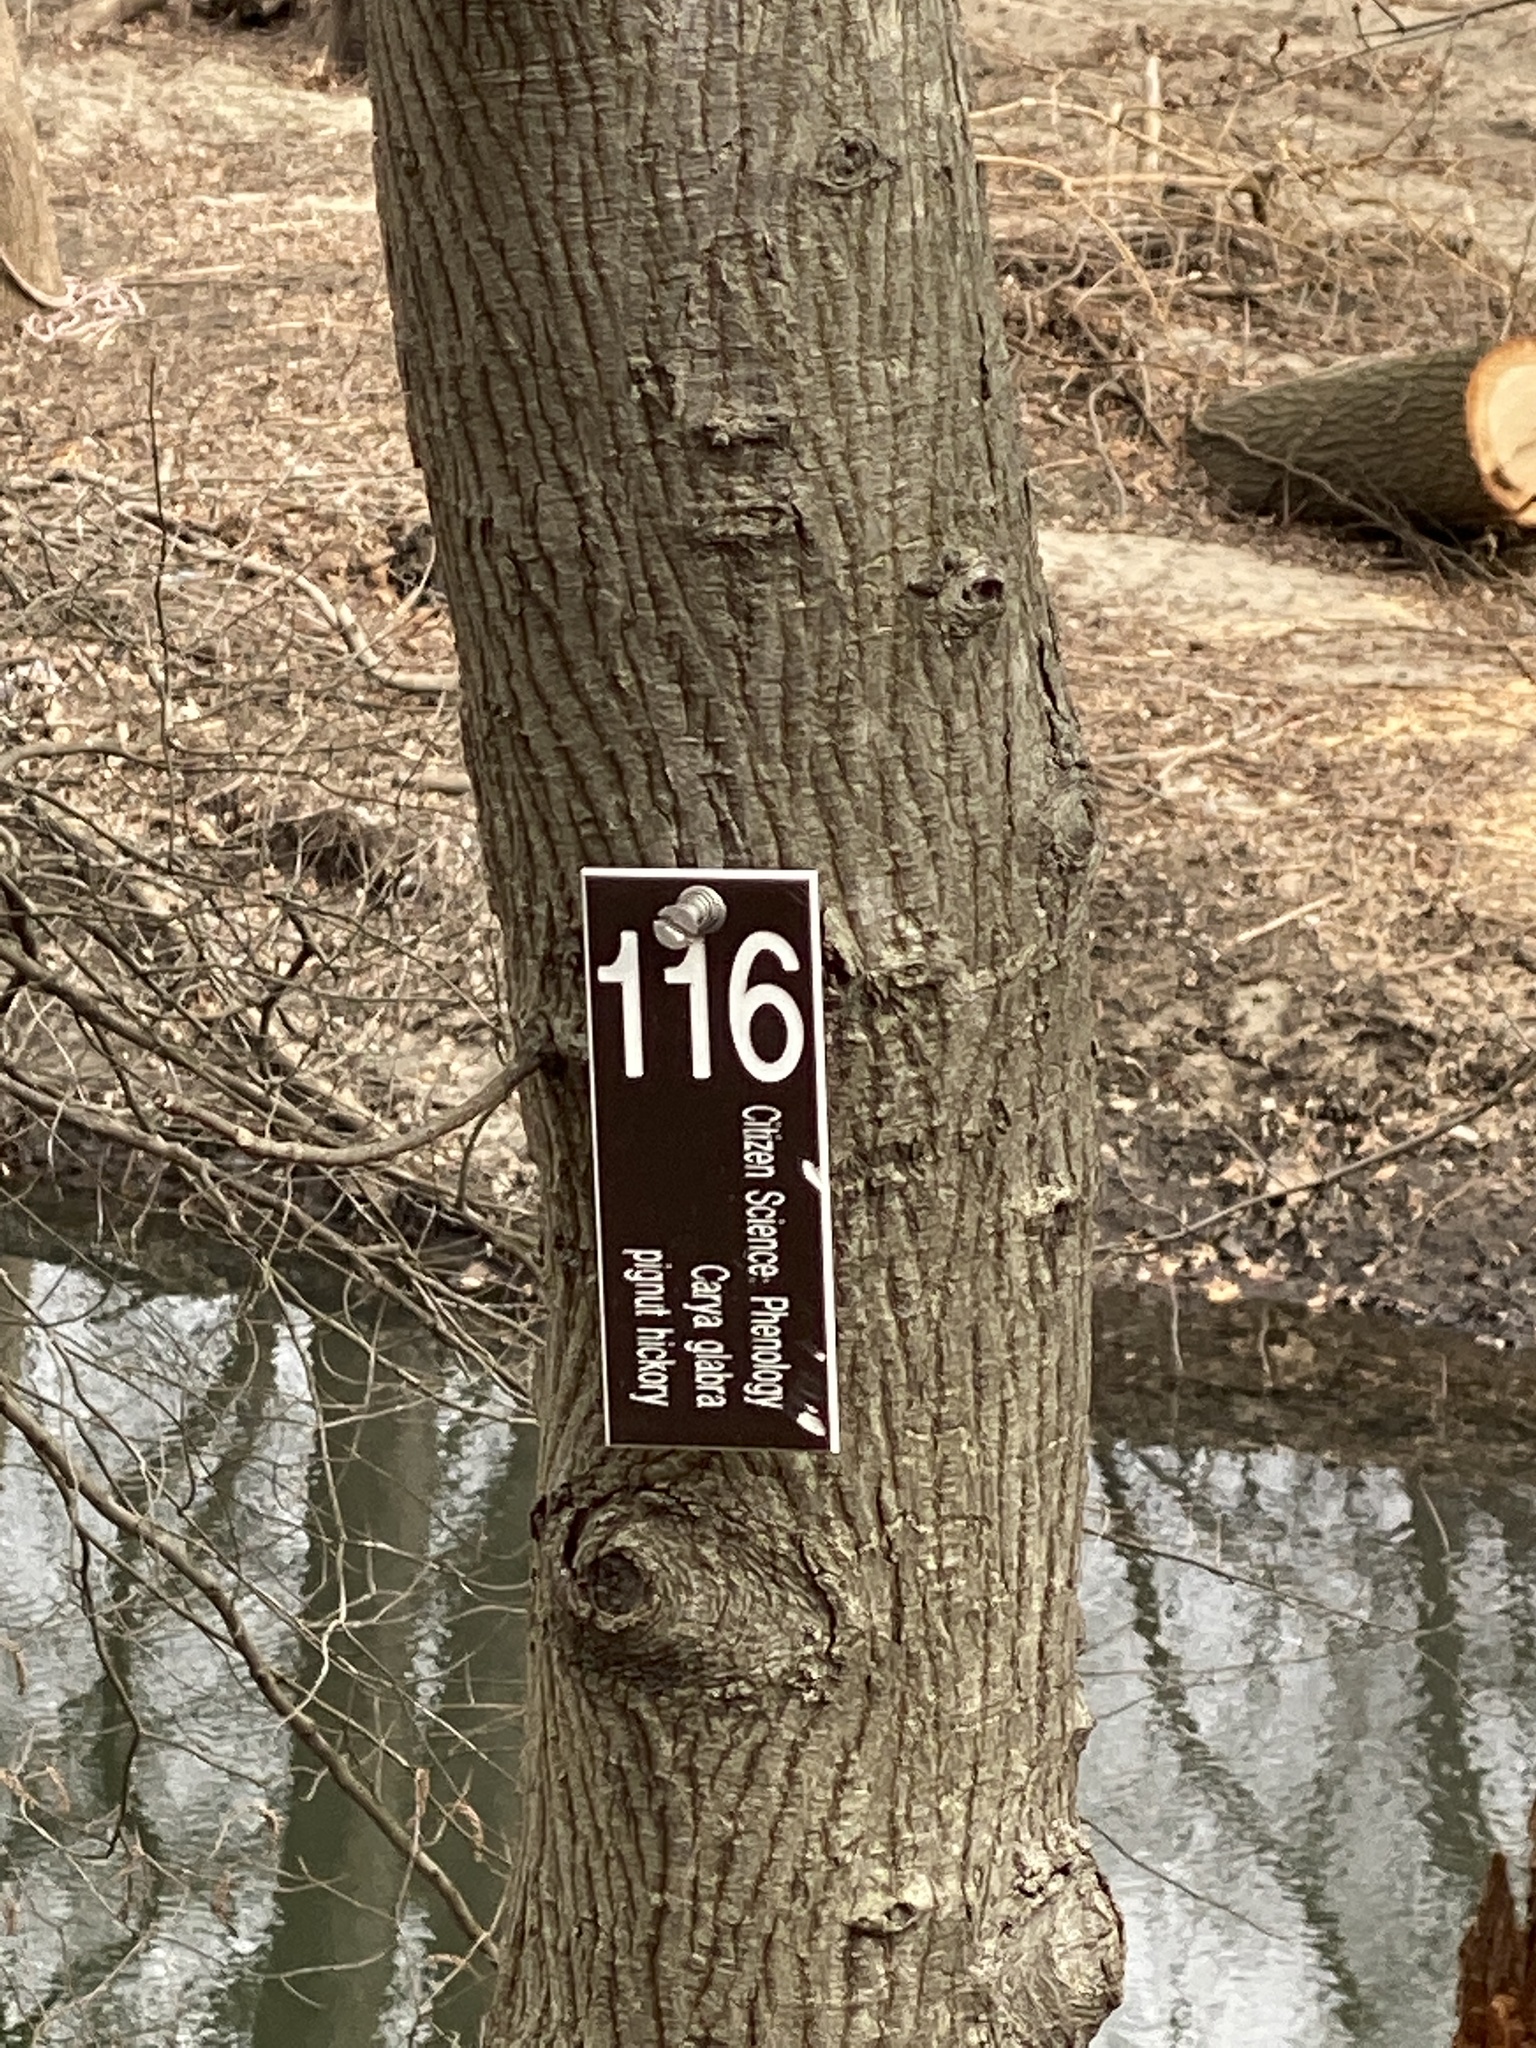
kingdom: Plantae
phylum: Tracheophyta
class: Magnoliopsida
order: Fagales
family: Juglandaceae
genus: Carya
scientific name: Carya
